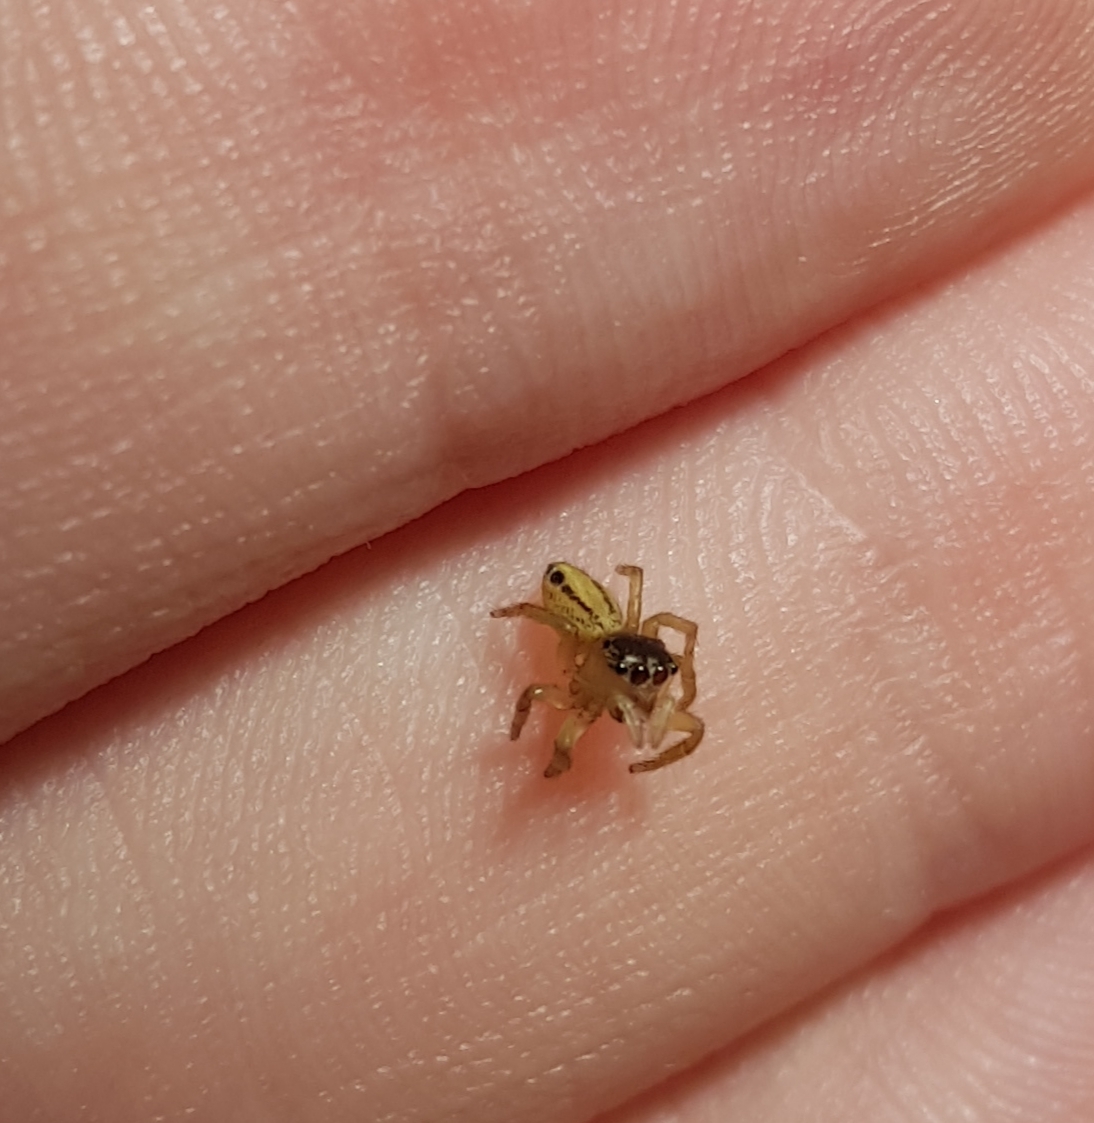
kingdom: Animalia
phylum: Arthropoda
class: Arachnida
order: Araneae
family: Salticidae
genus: Maratus
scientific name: Maratus scutulatus
